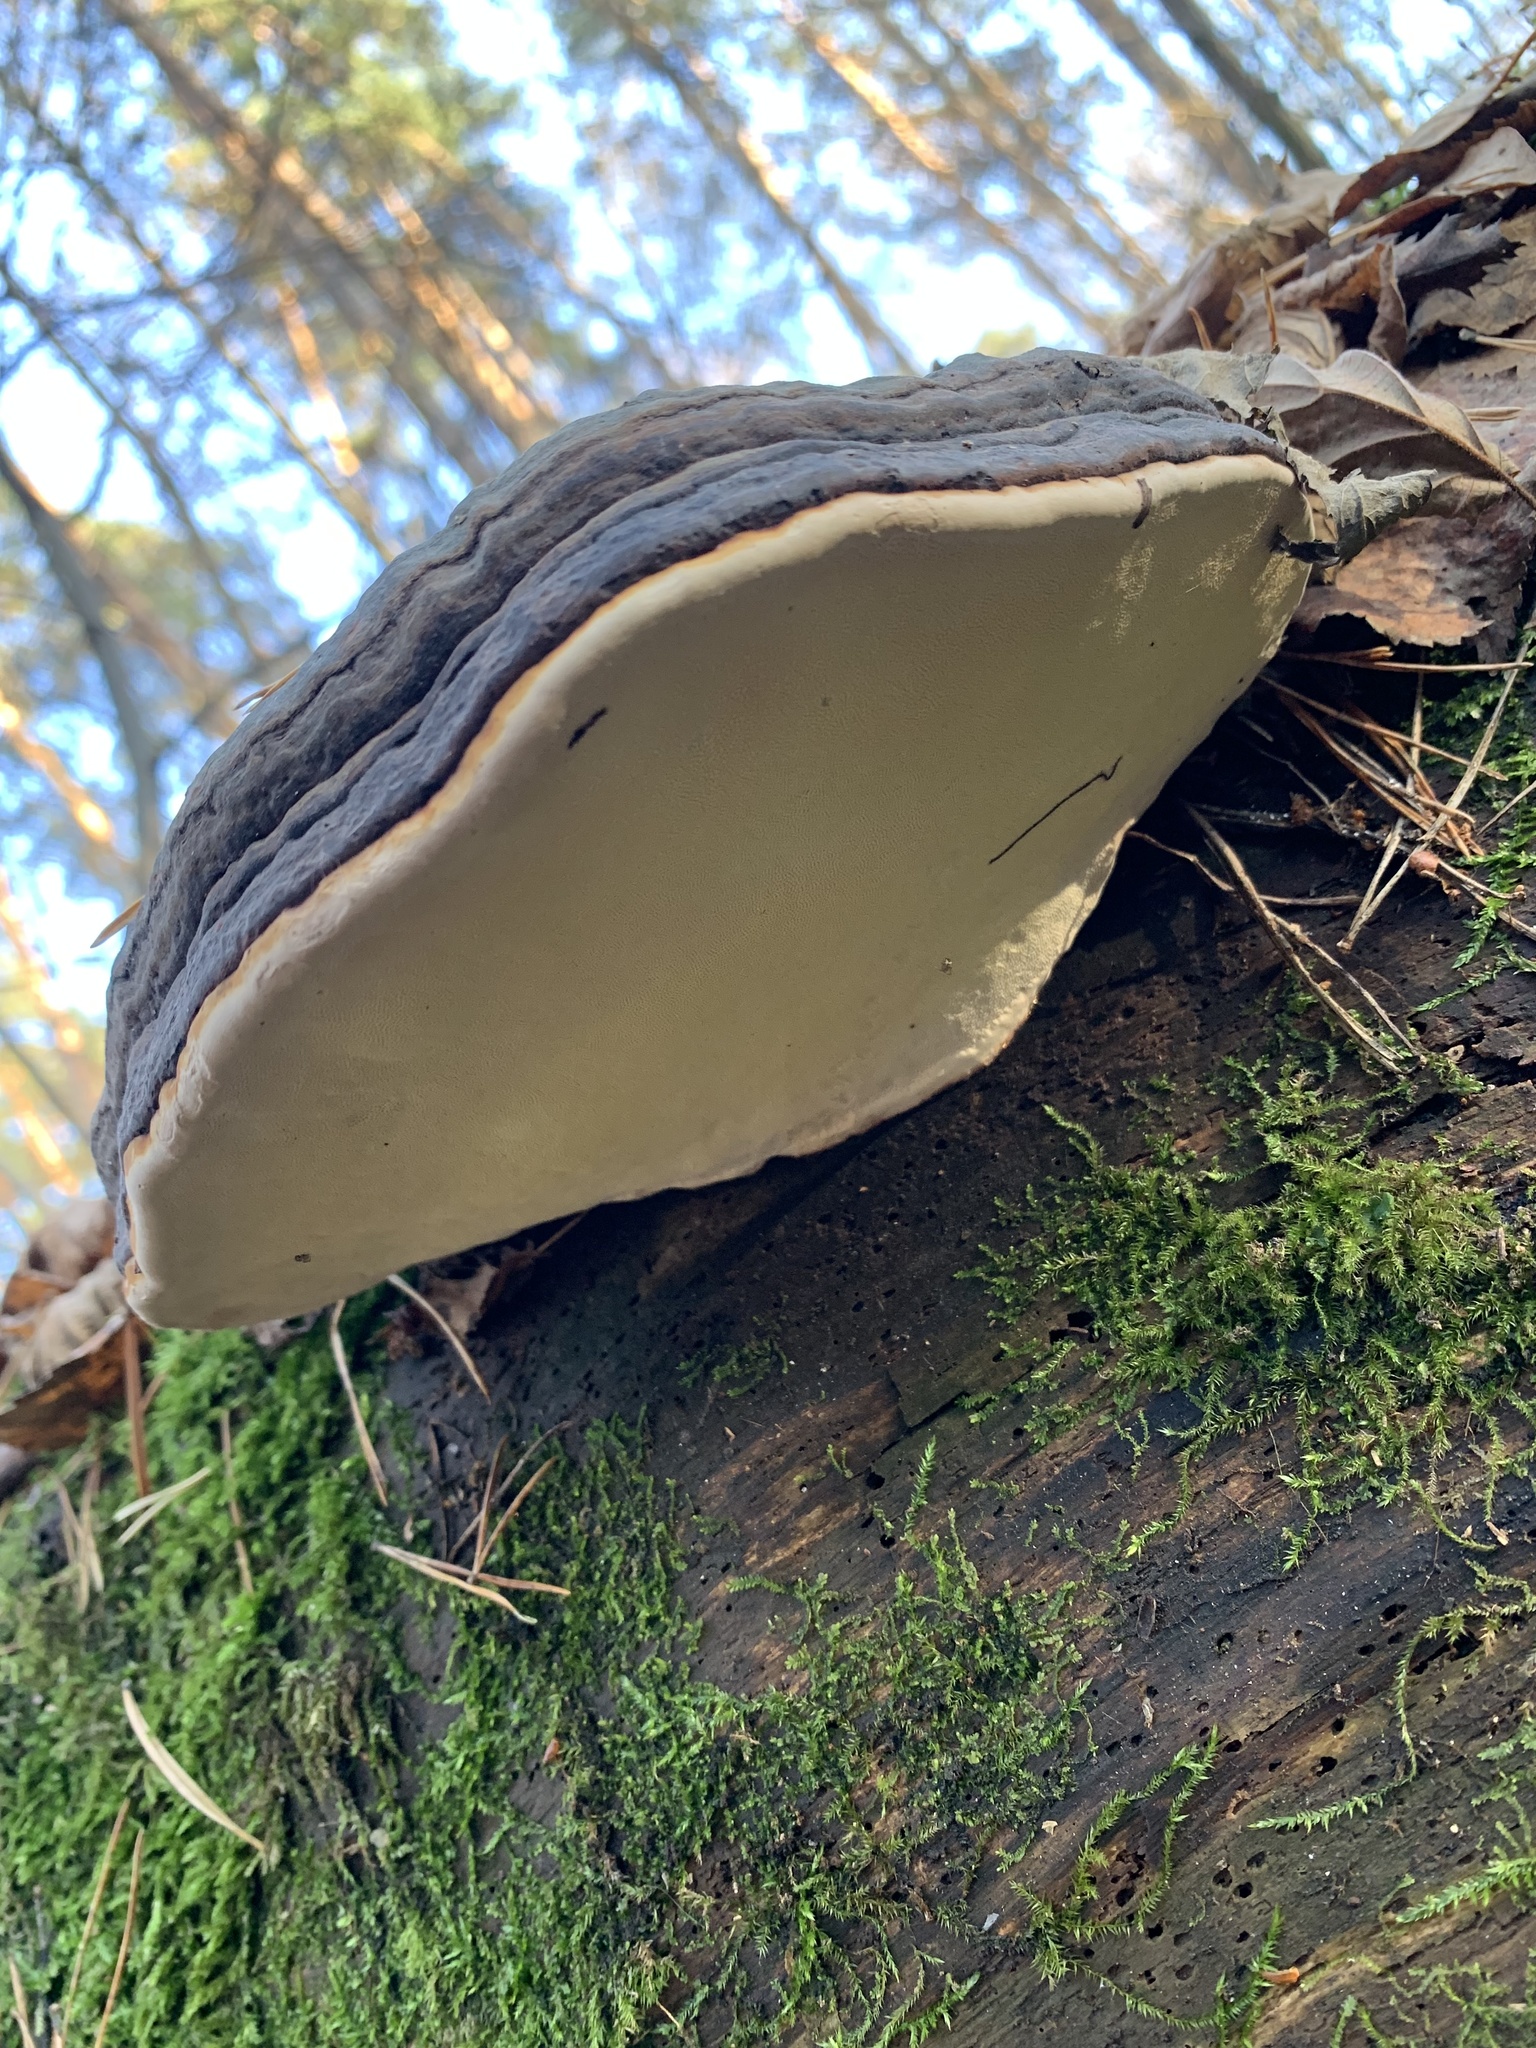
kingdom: Fungi
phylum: Basidiomycota
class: Agaricomycetes
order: Polyporales
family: Fomitopsidaceae
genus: Fomitopsis
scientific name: Fomitopsis pinicola
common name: Red-belted bracket
